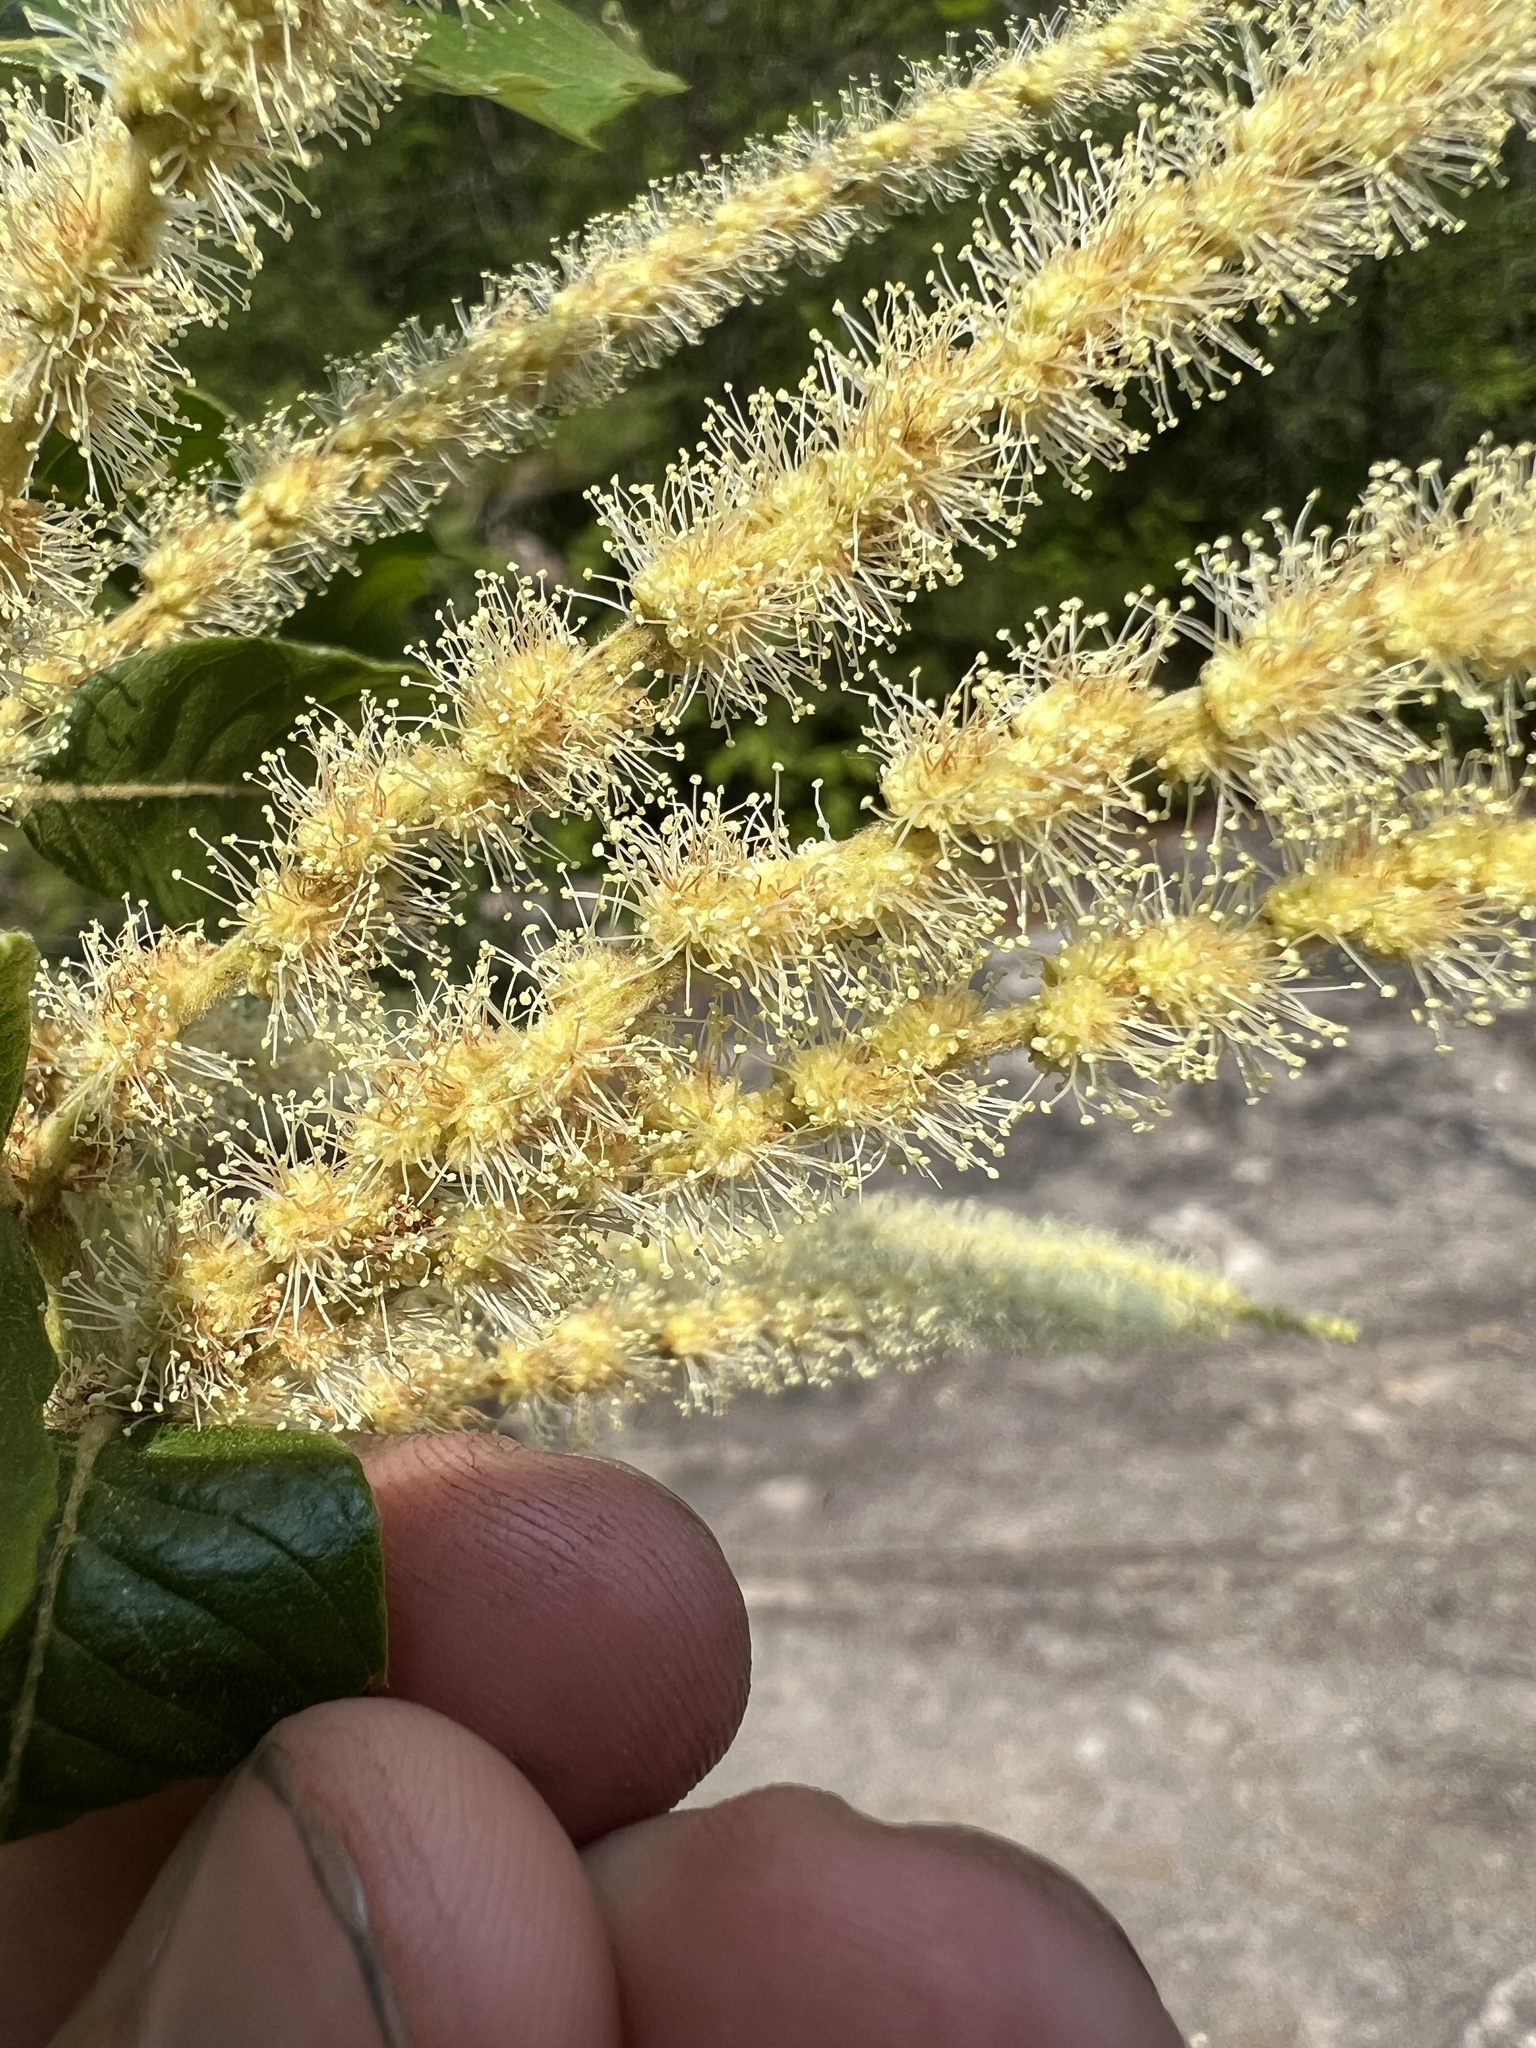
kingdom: Plantae
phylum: Tracheophyta
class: Magnoliopsida
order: Fagales
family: Fagaceae
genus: Castanea
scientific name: Castanea mollissima
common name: Chinese chestnut
